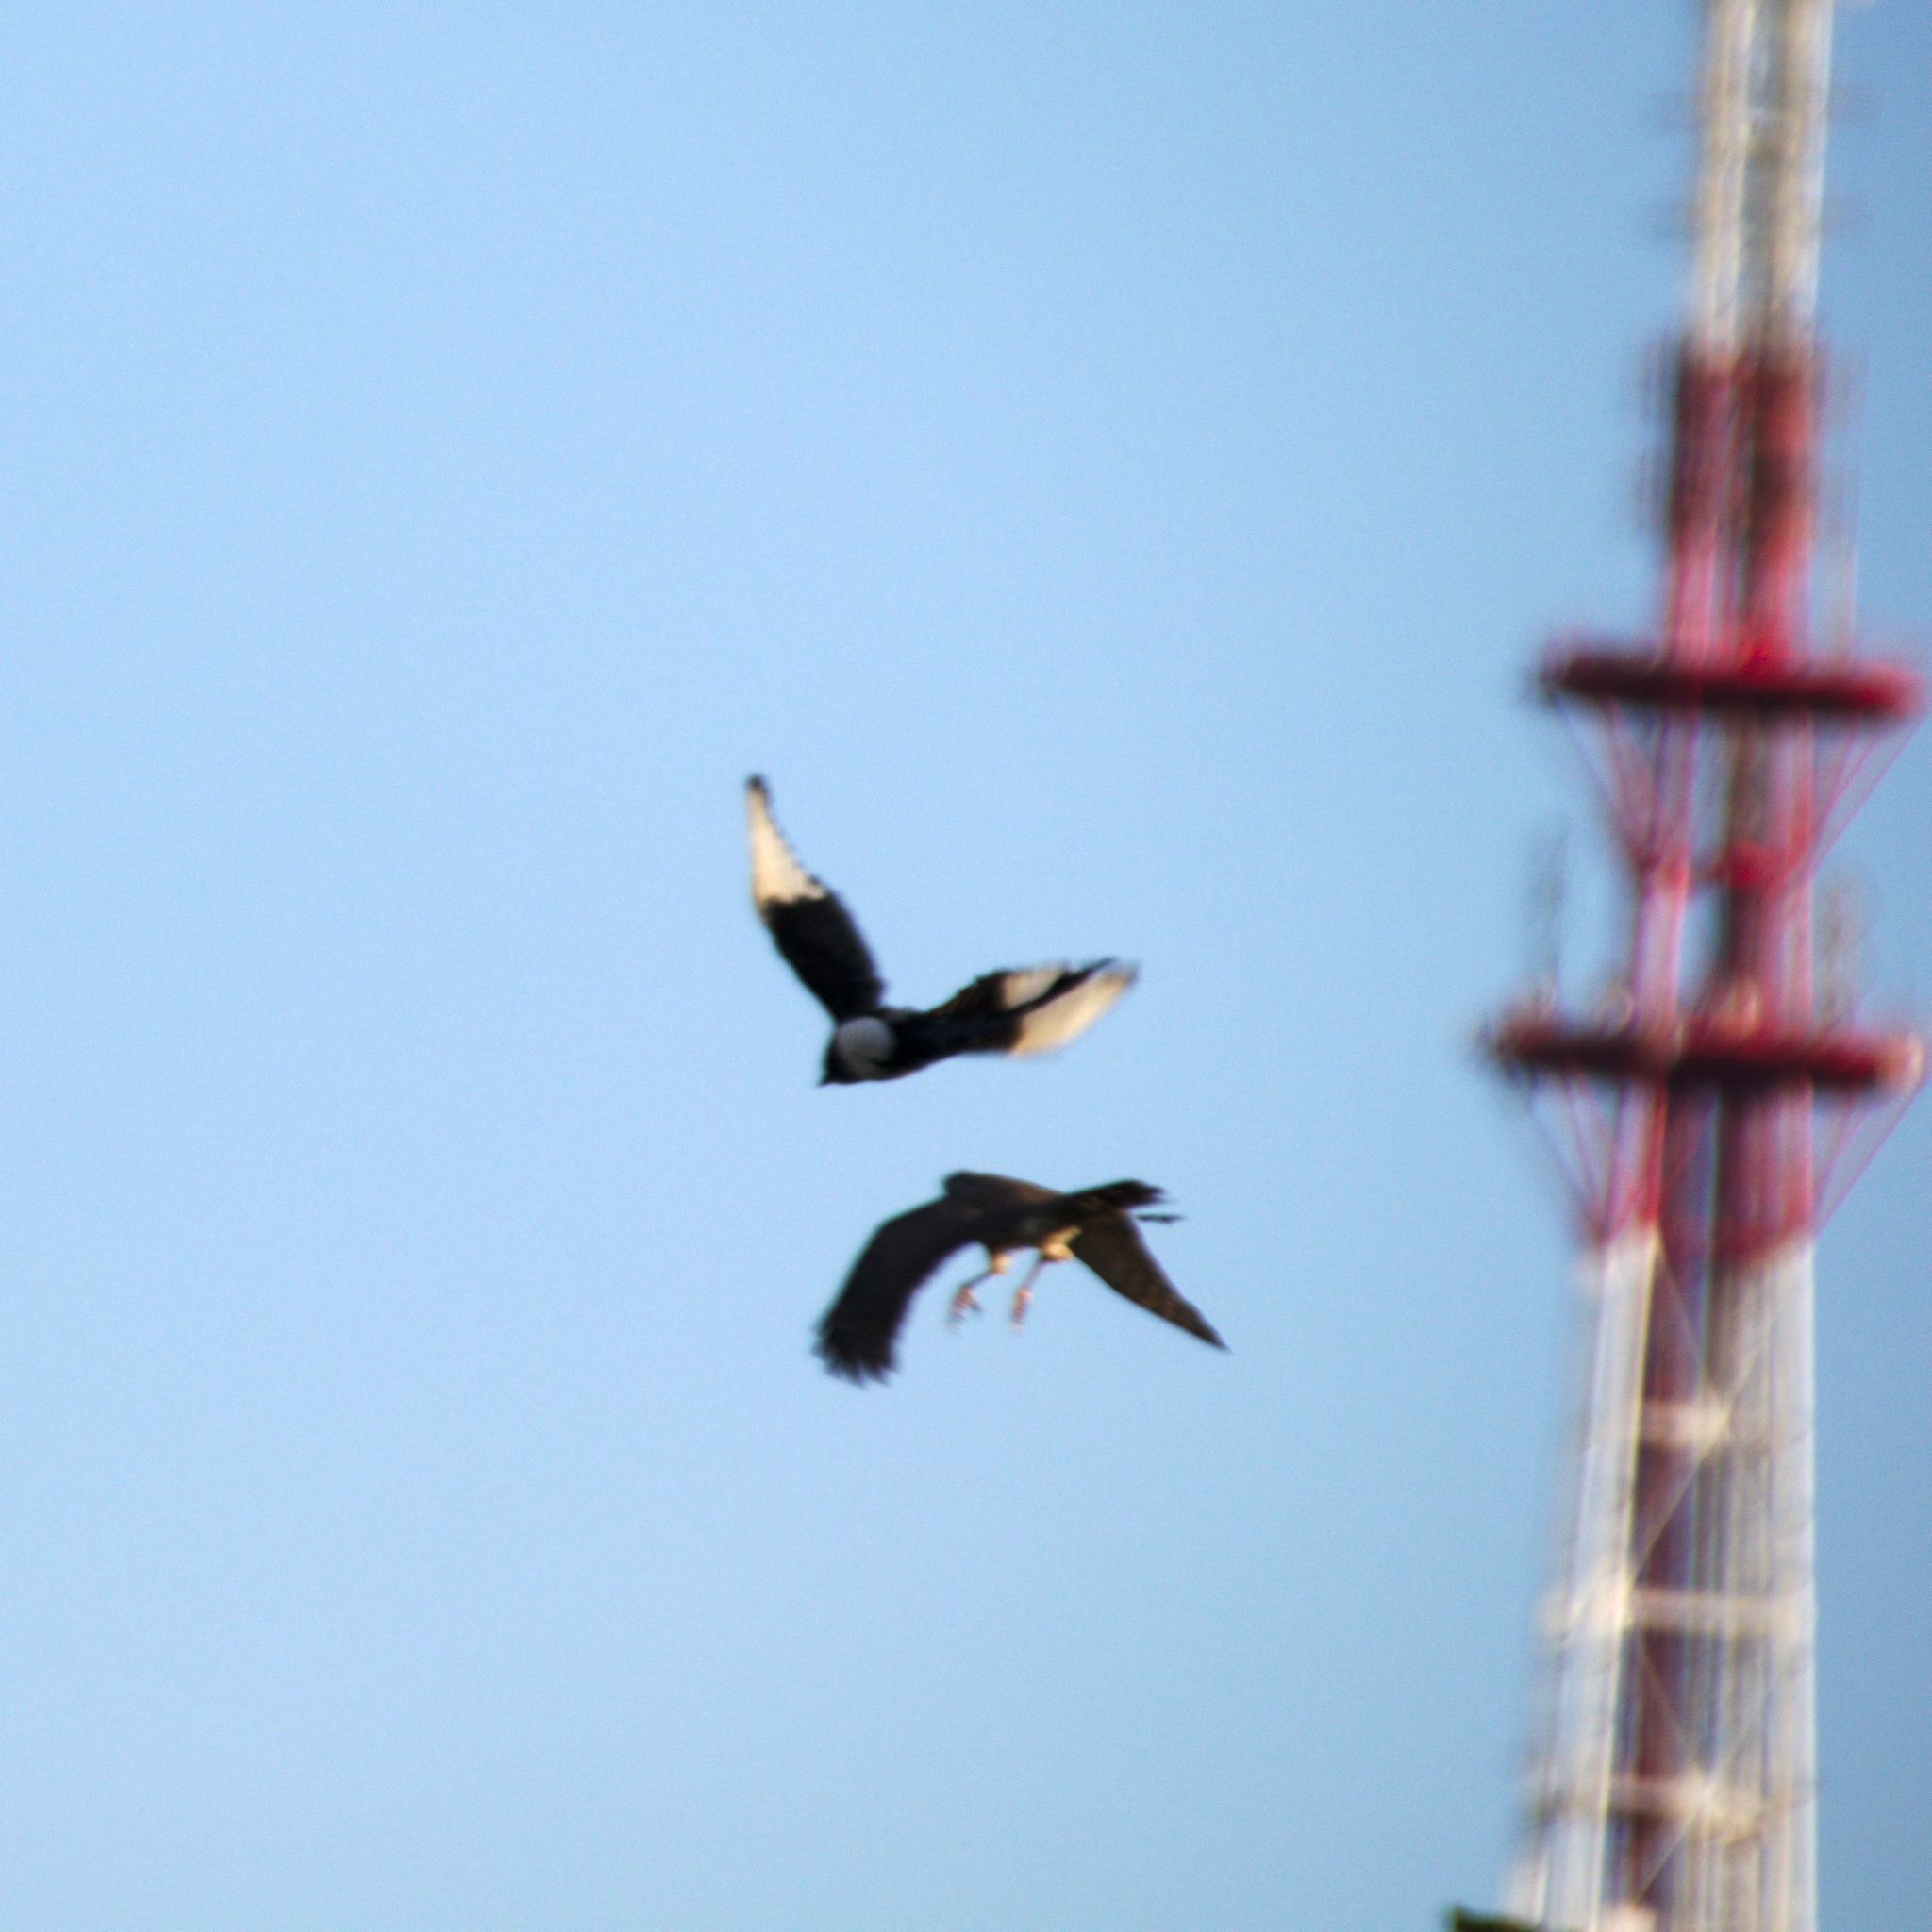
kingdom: Animalia
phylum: Chordata
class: Aves
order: Accipitriformes
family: Accipitridae
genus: Accipiter
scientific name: Accipiter nisus
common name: Eurasian sparrowhawk
